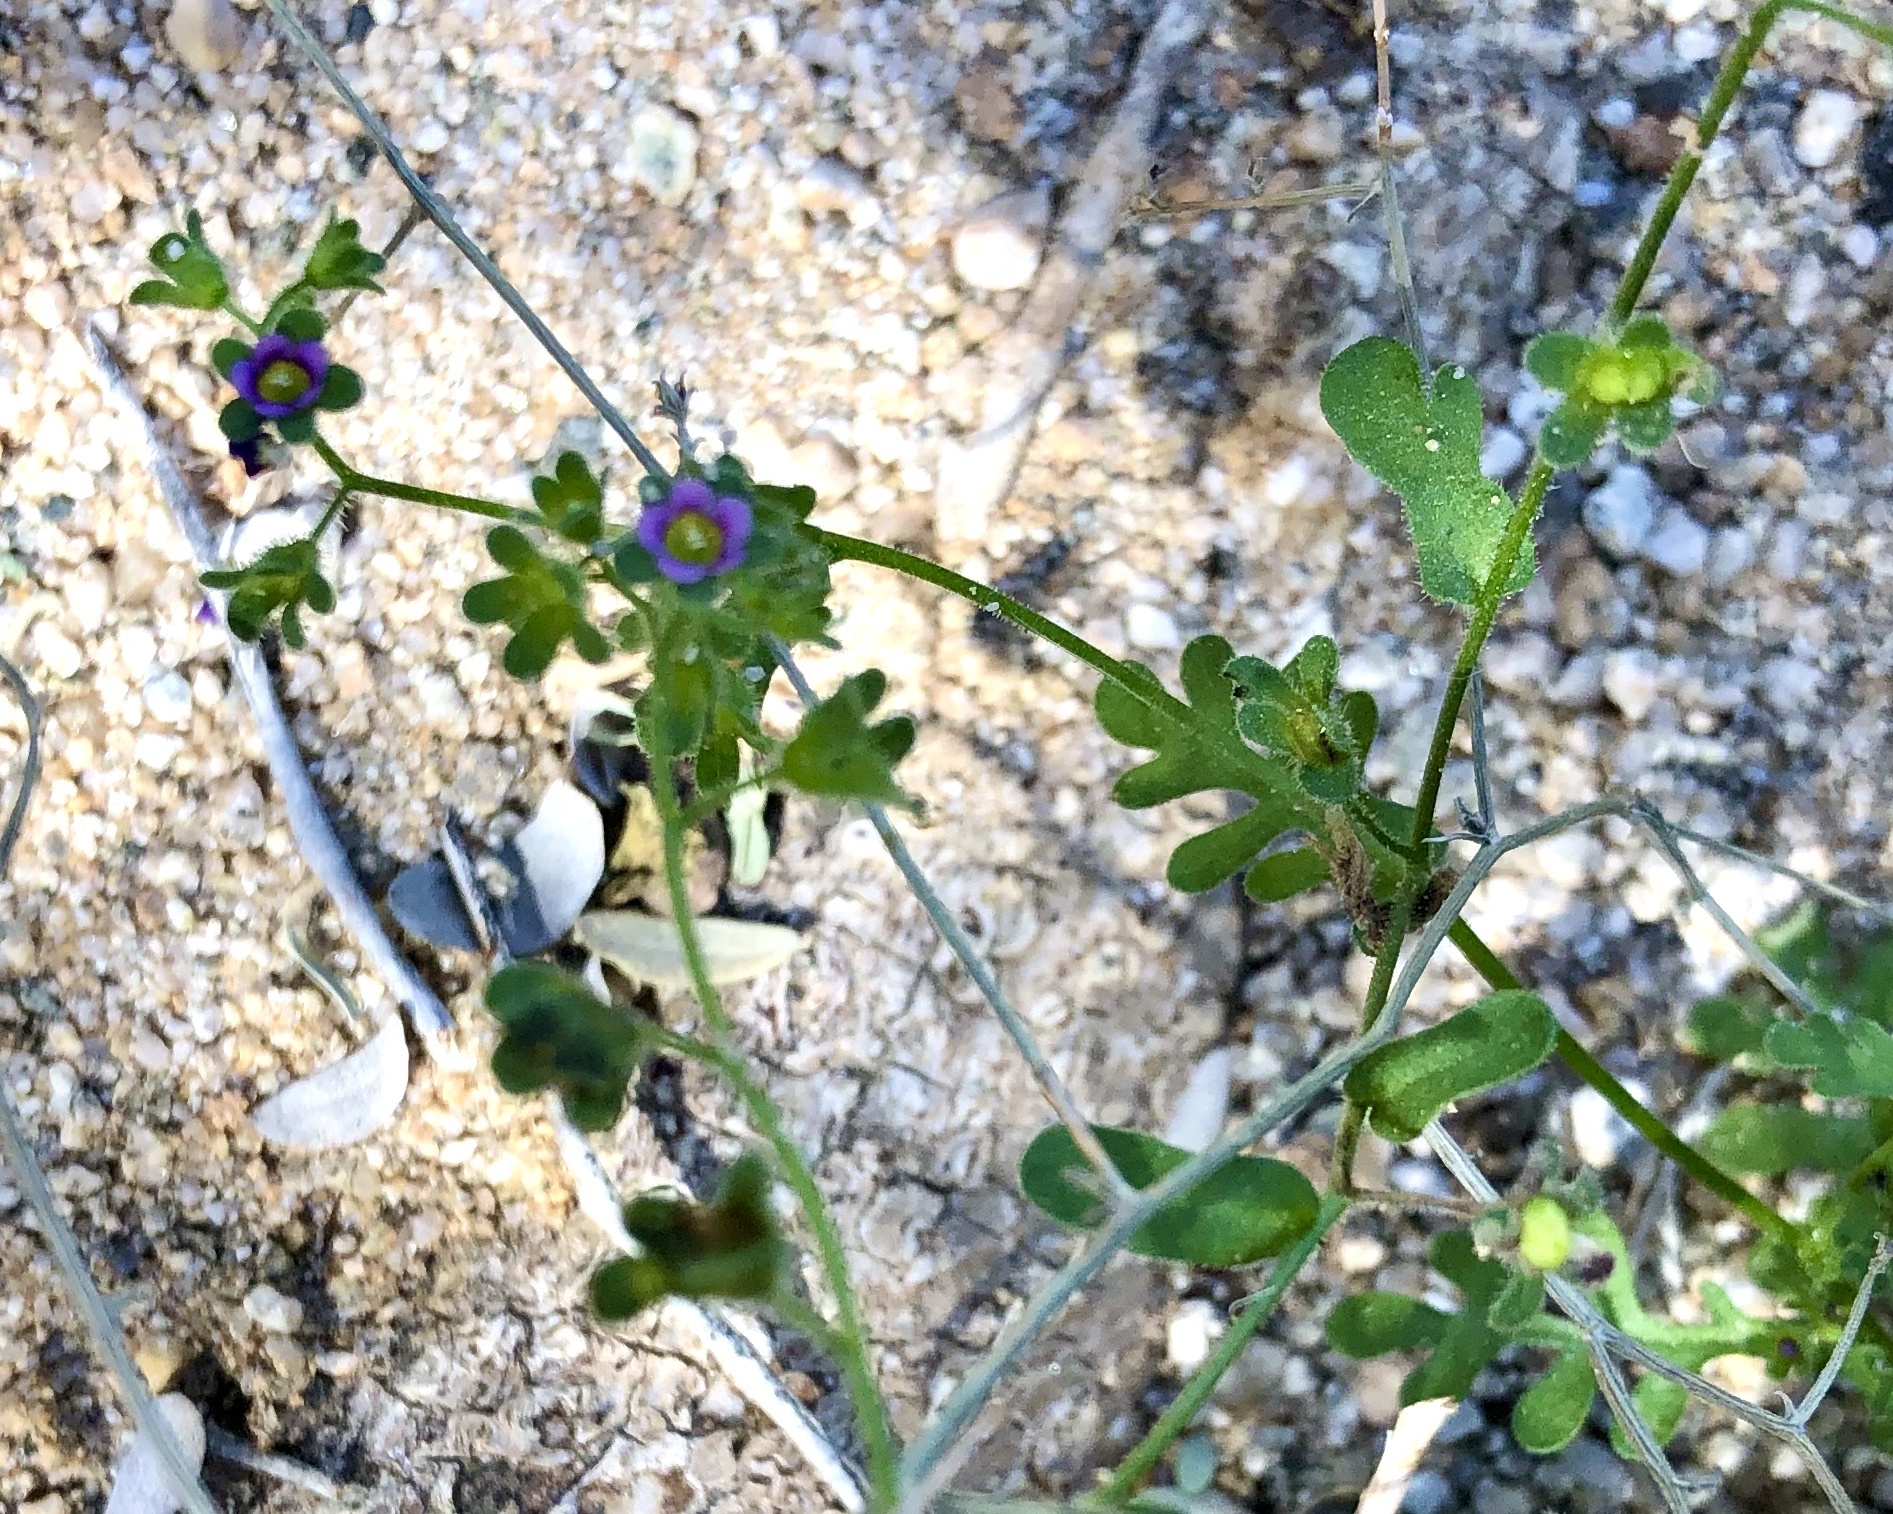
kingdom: Plantae
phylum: Tracheophyta
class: Magnoliopsida
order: Boraginales
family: Hydrophyllaceae
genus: Eucrypta
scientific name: Eucrypta micrantha
